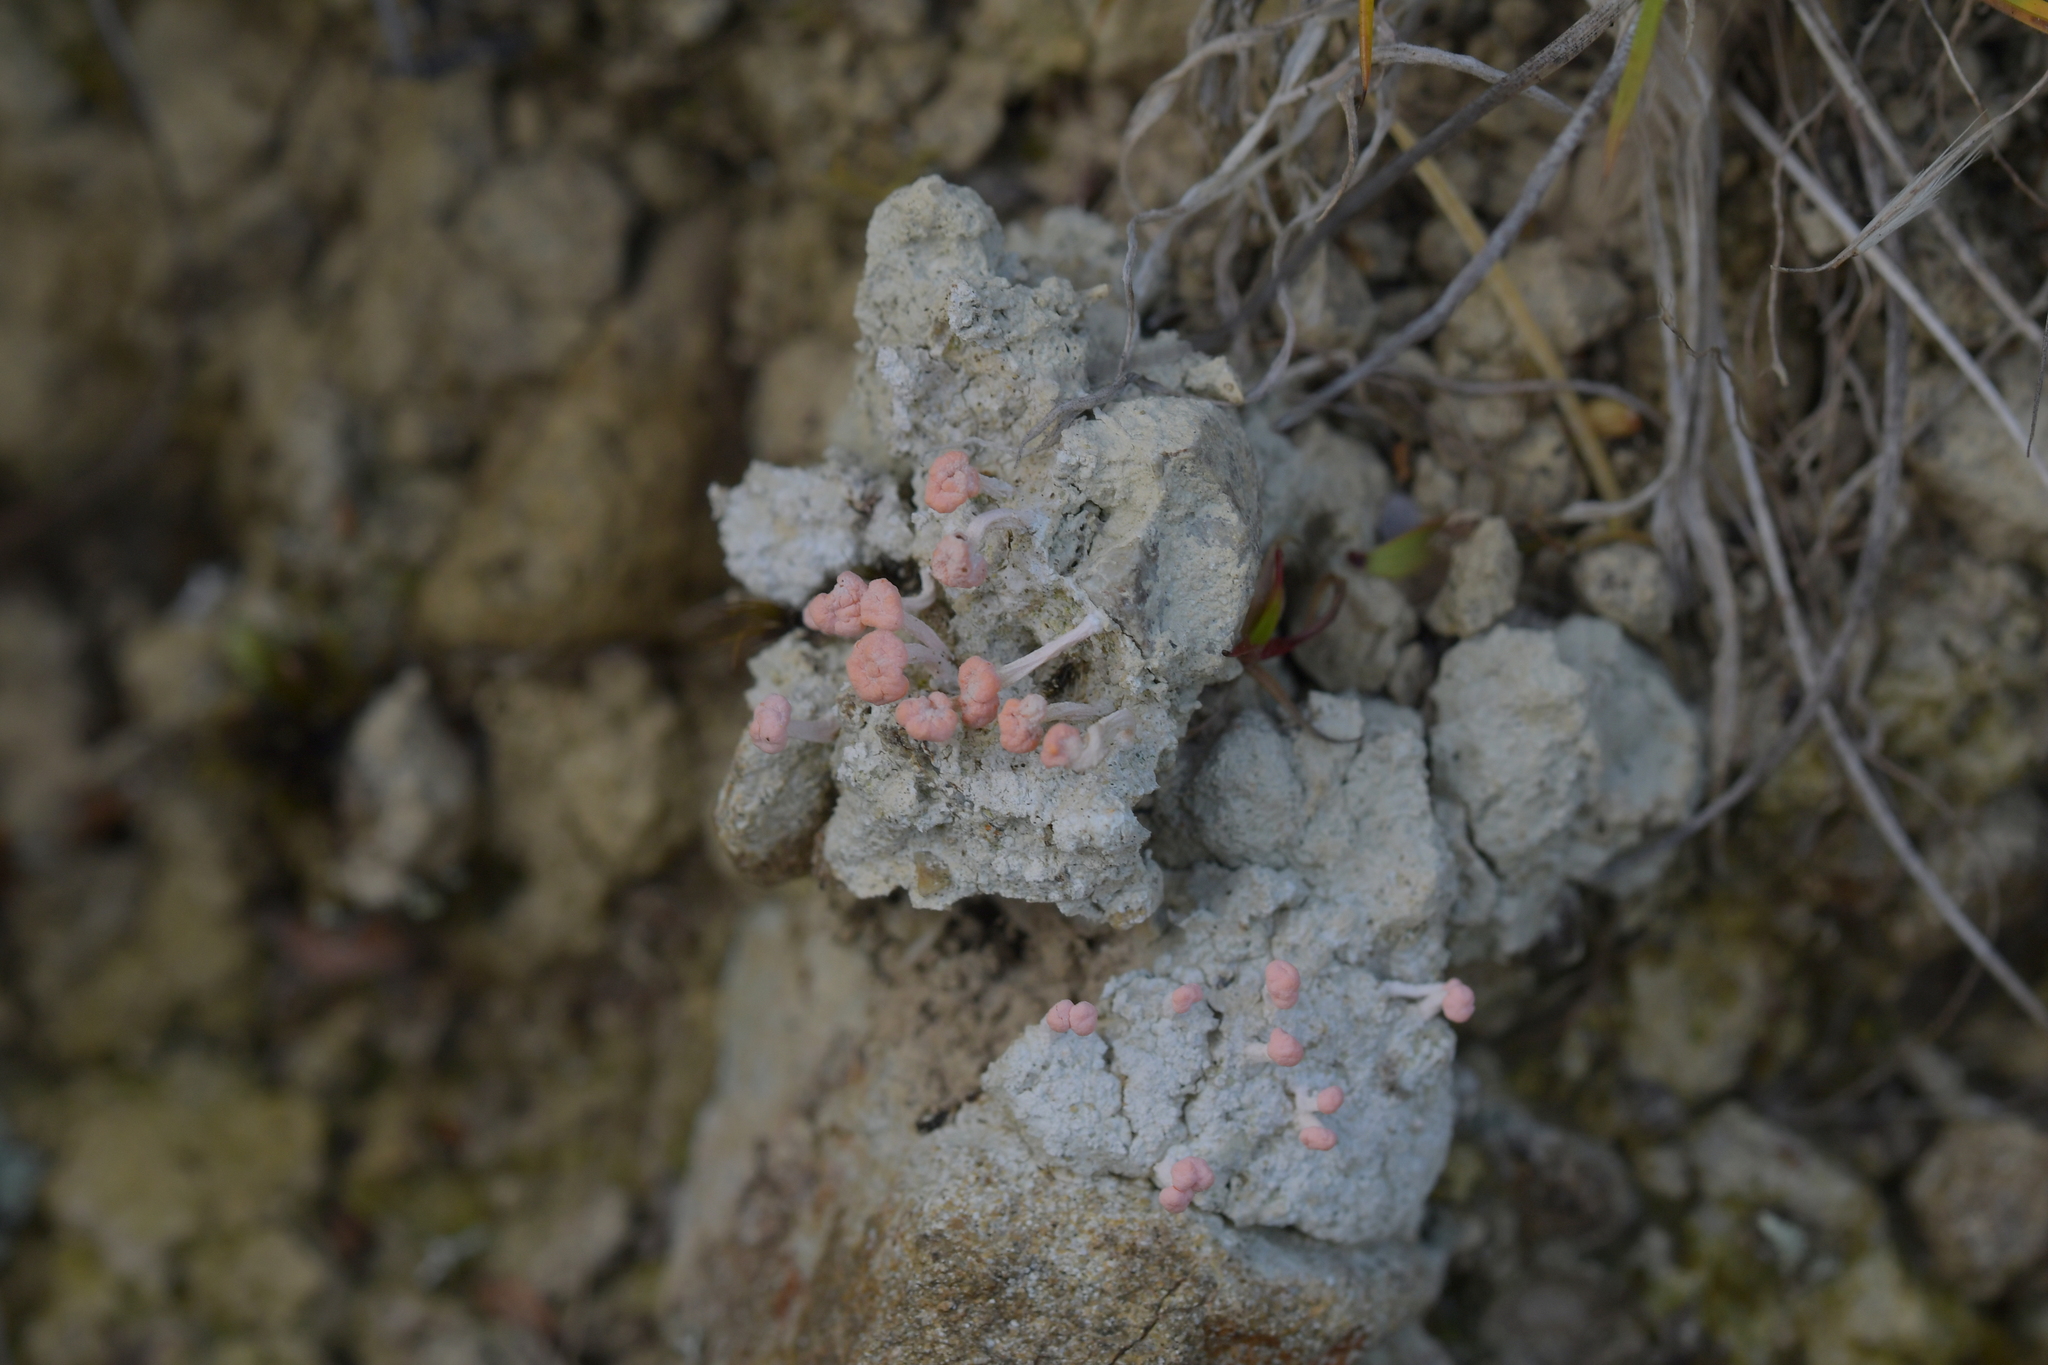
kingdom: Fungi
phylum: Ascomycota
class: Lecanoromycetes
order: Pertusariales
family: Icmadophilaceae
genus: Dibaeis
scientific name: Dibaeis arcuata
